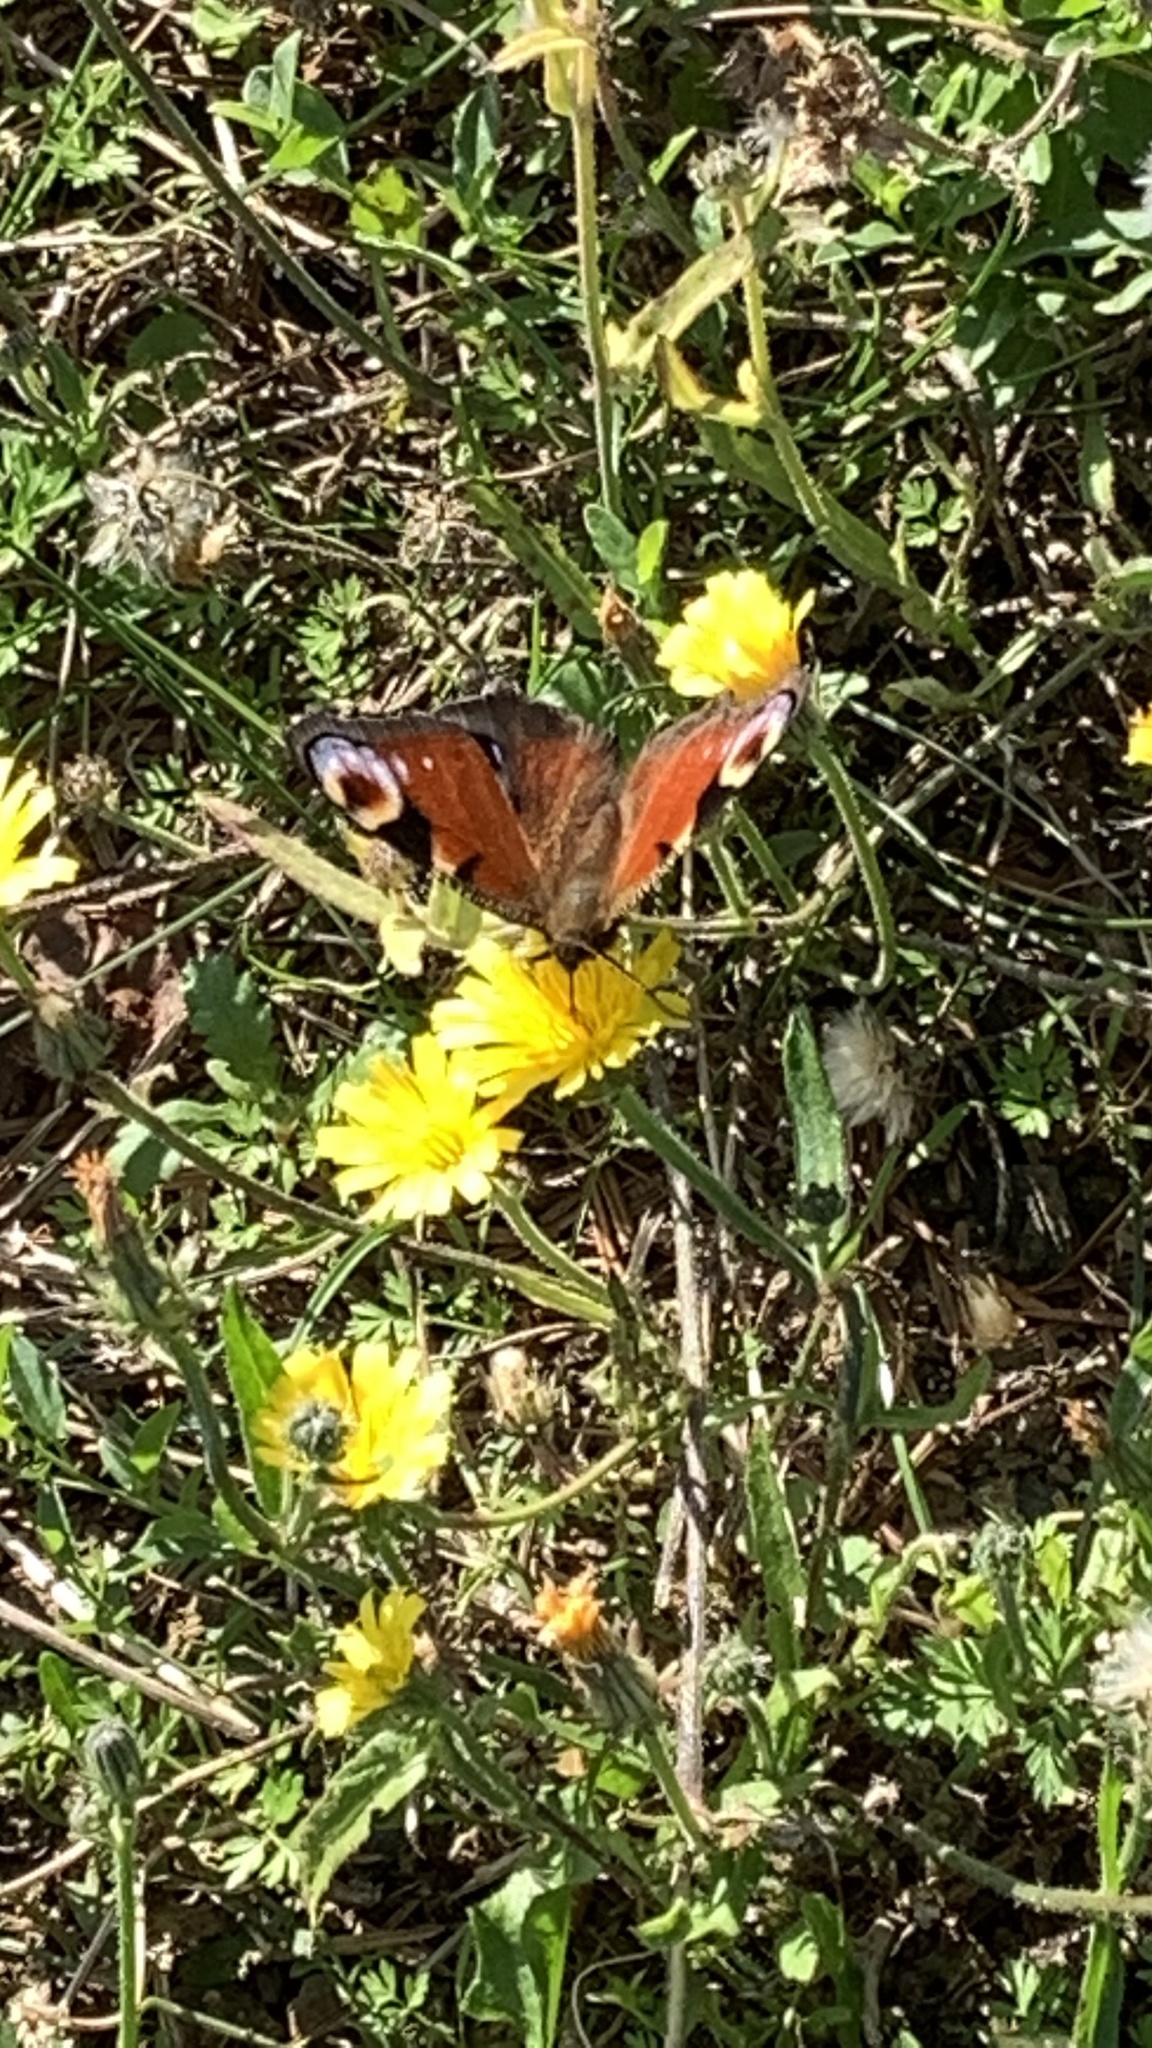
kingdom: Animalia
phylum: Arthropoda
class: Insecta
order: Lepidoptera
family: Nymphalidae
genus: Aglais
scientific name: Aglais io
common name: Peacock
